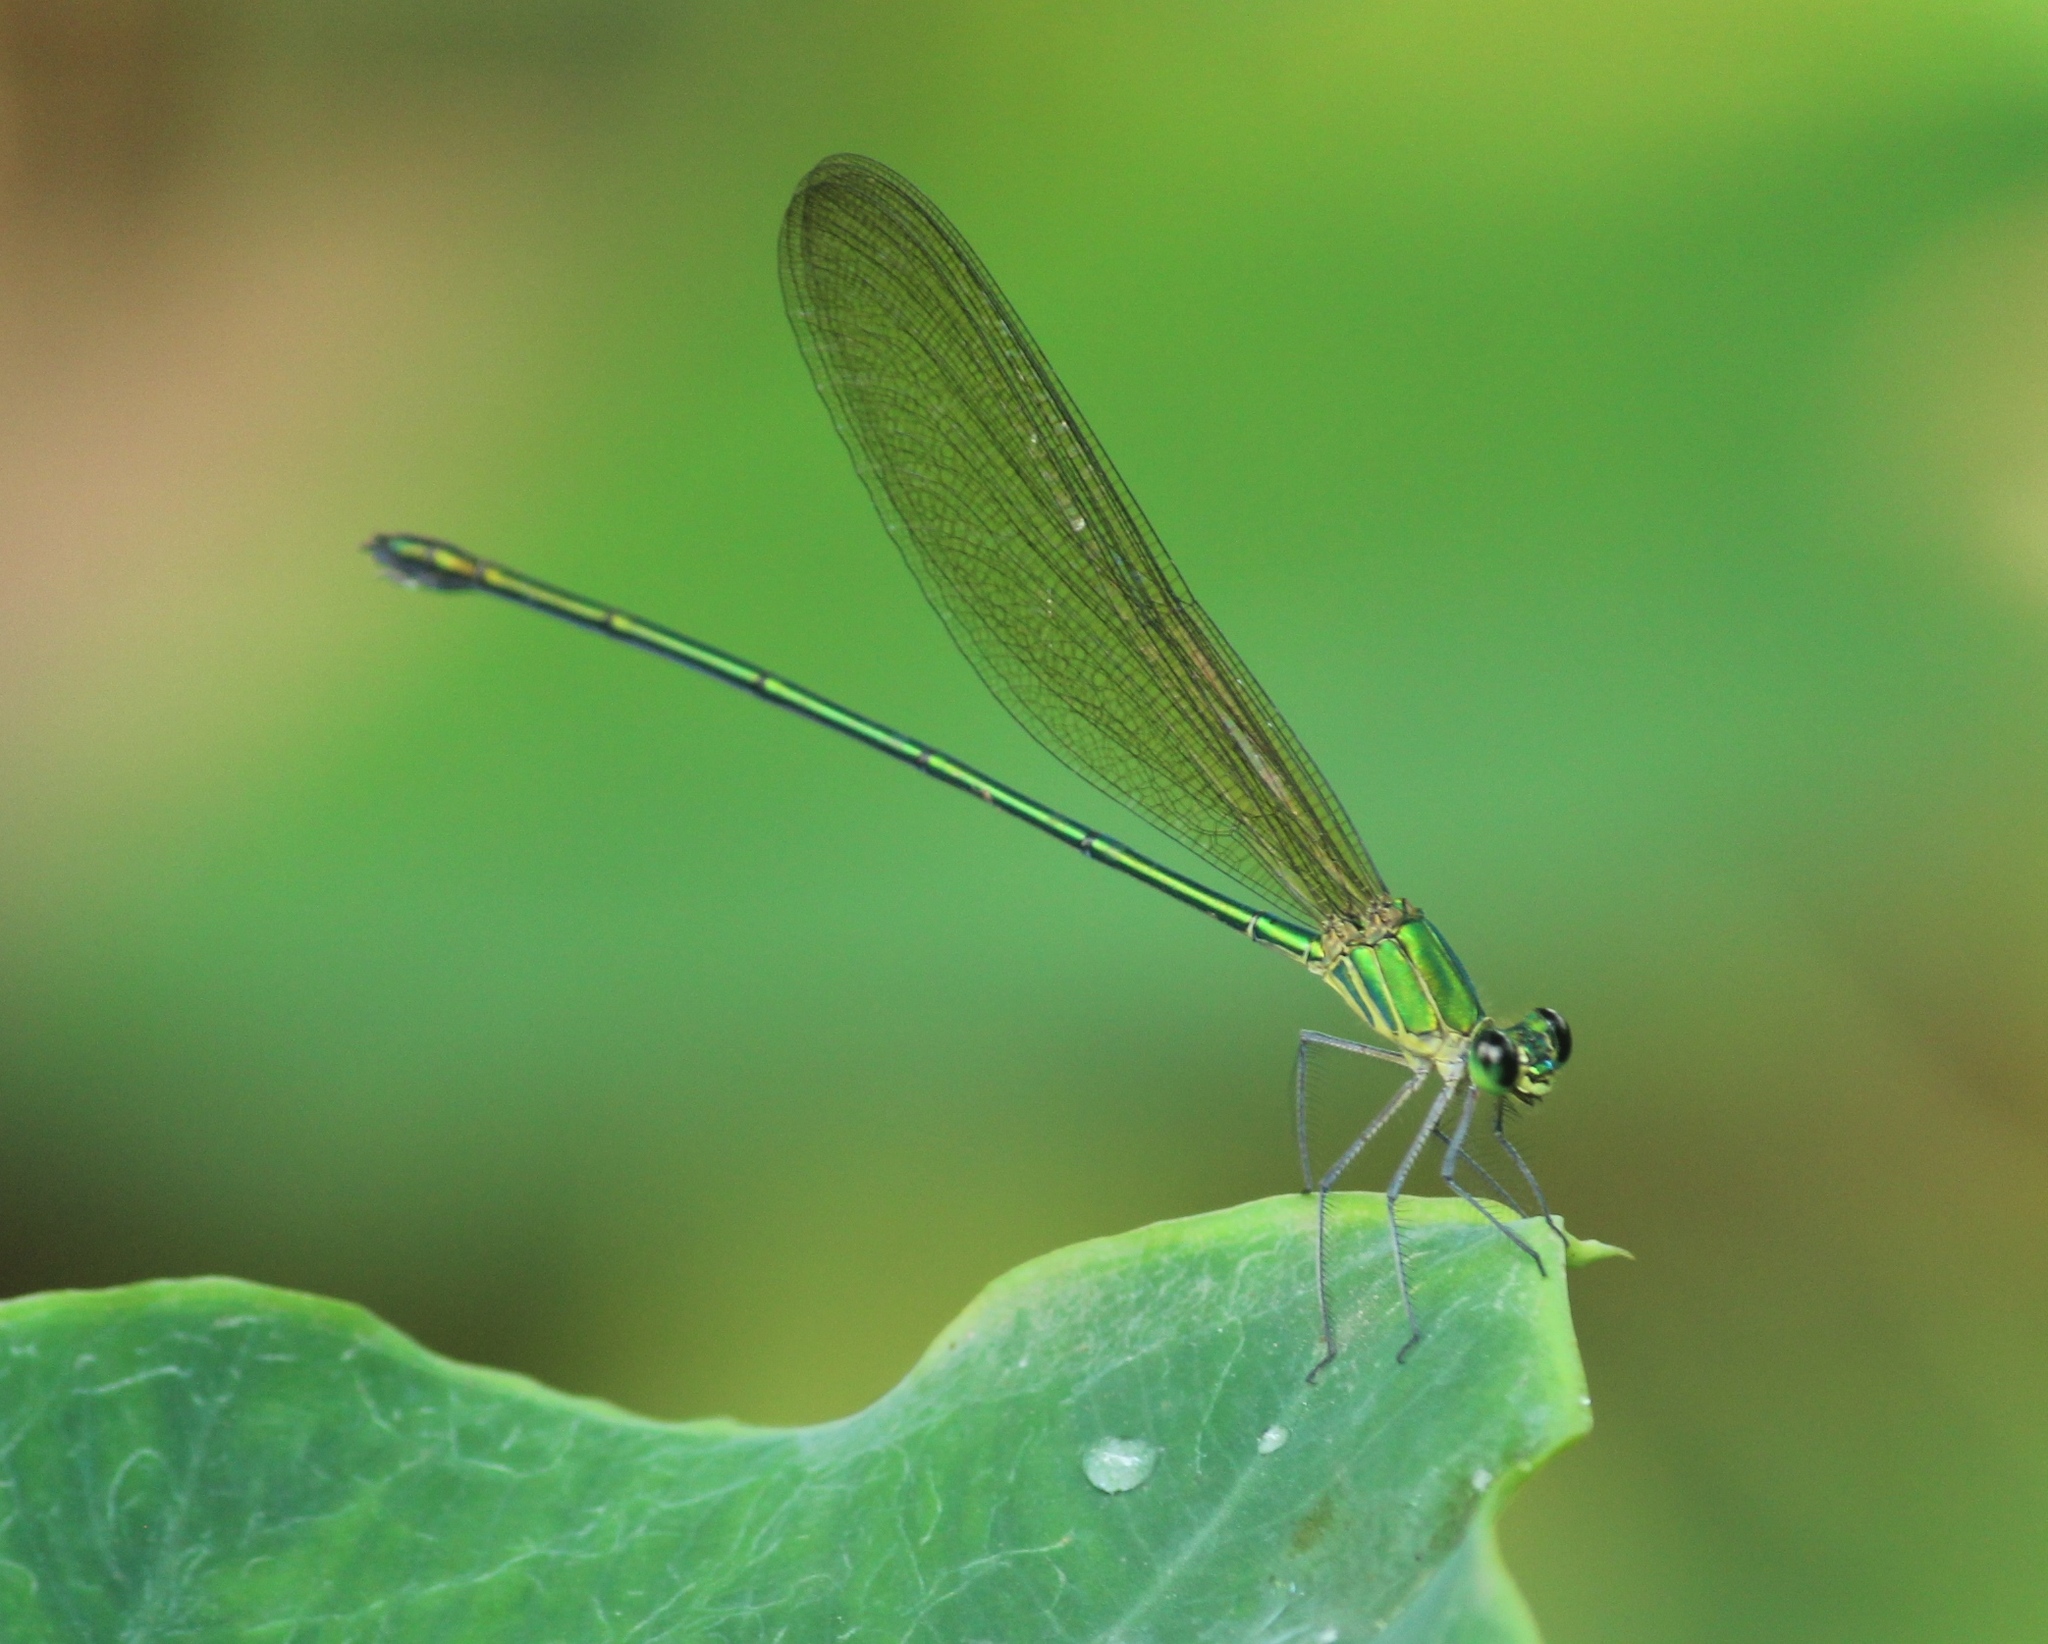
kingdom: Animalia
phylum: Arthropoda
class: Insecta
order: Odonata
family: Calopterygidae
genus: Vestalis
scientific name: Vestalis gracilis
